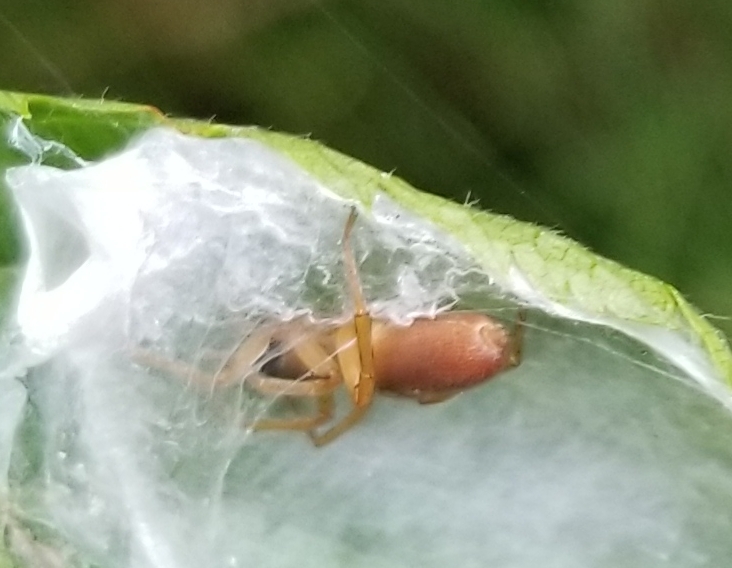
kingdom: Animalia
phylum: Arthropoda
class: Arachnida
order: Araneae
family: Clubionidae
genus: Clubiona
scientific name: Clubiona
